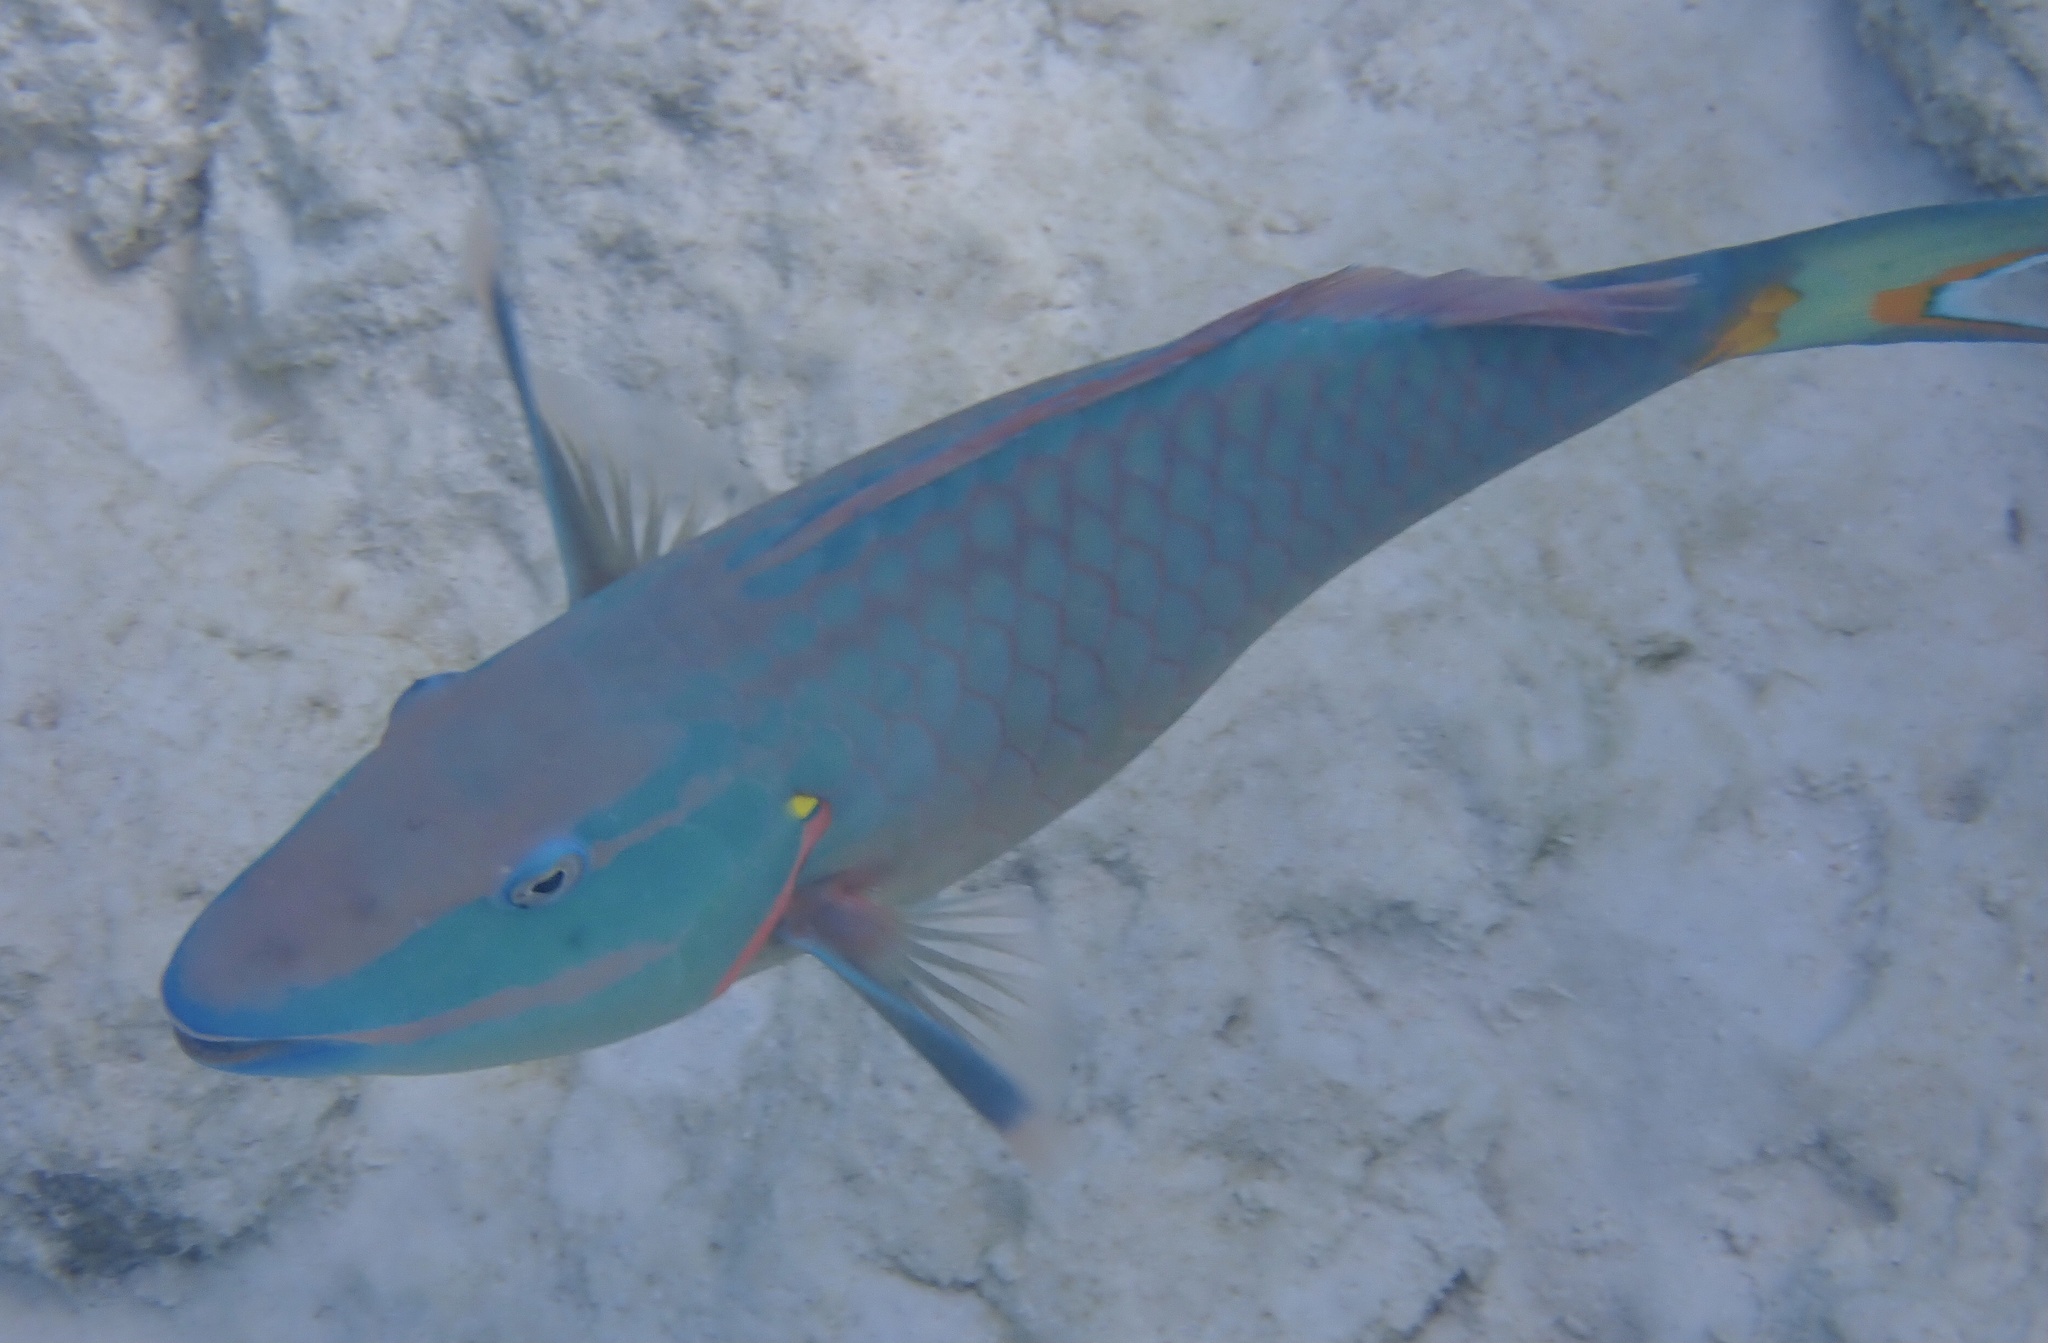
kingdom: Animalia
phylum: Chordata
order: Perciformes
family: Scaridae
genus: Sparisoma
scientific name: Sparisoma viride
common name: Stoplight parrotfish
